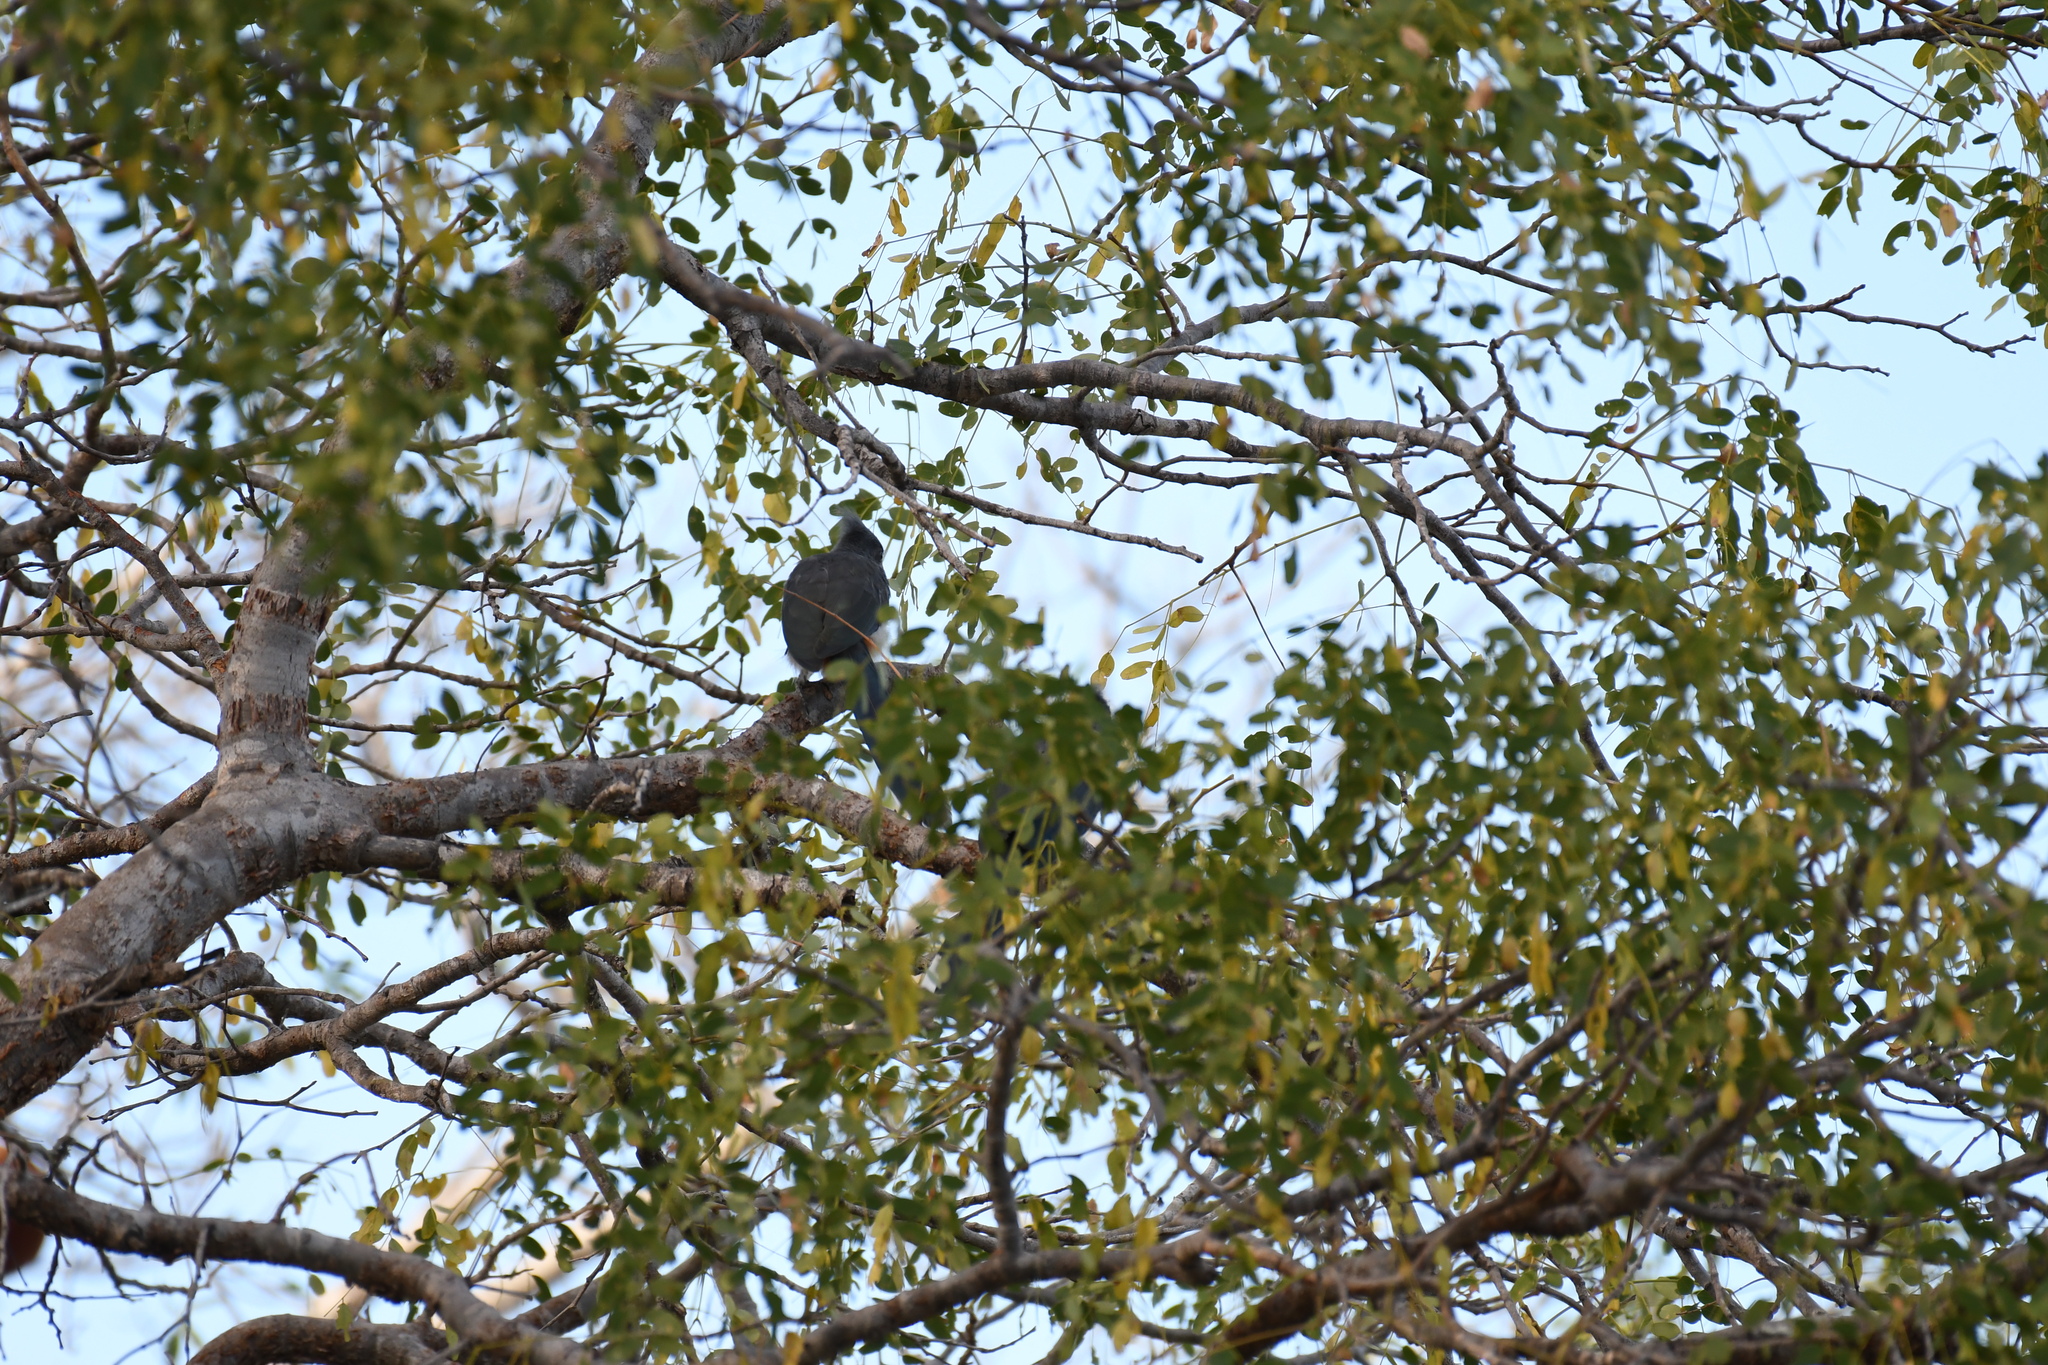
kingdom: Animalia
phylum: Chordata
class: Aves
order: Cuculiformes
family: Cuculidae
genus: Coua
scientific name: Coua cristata
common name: Crested coua
